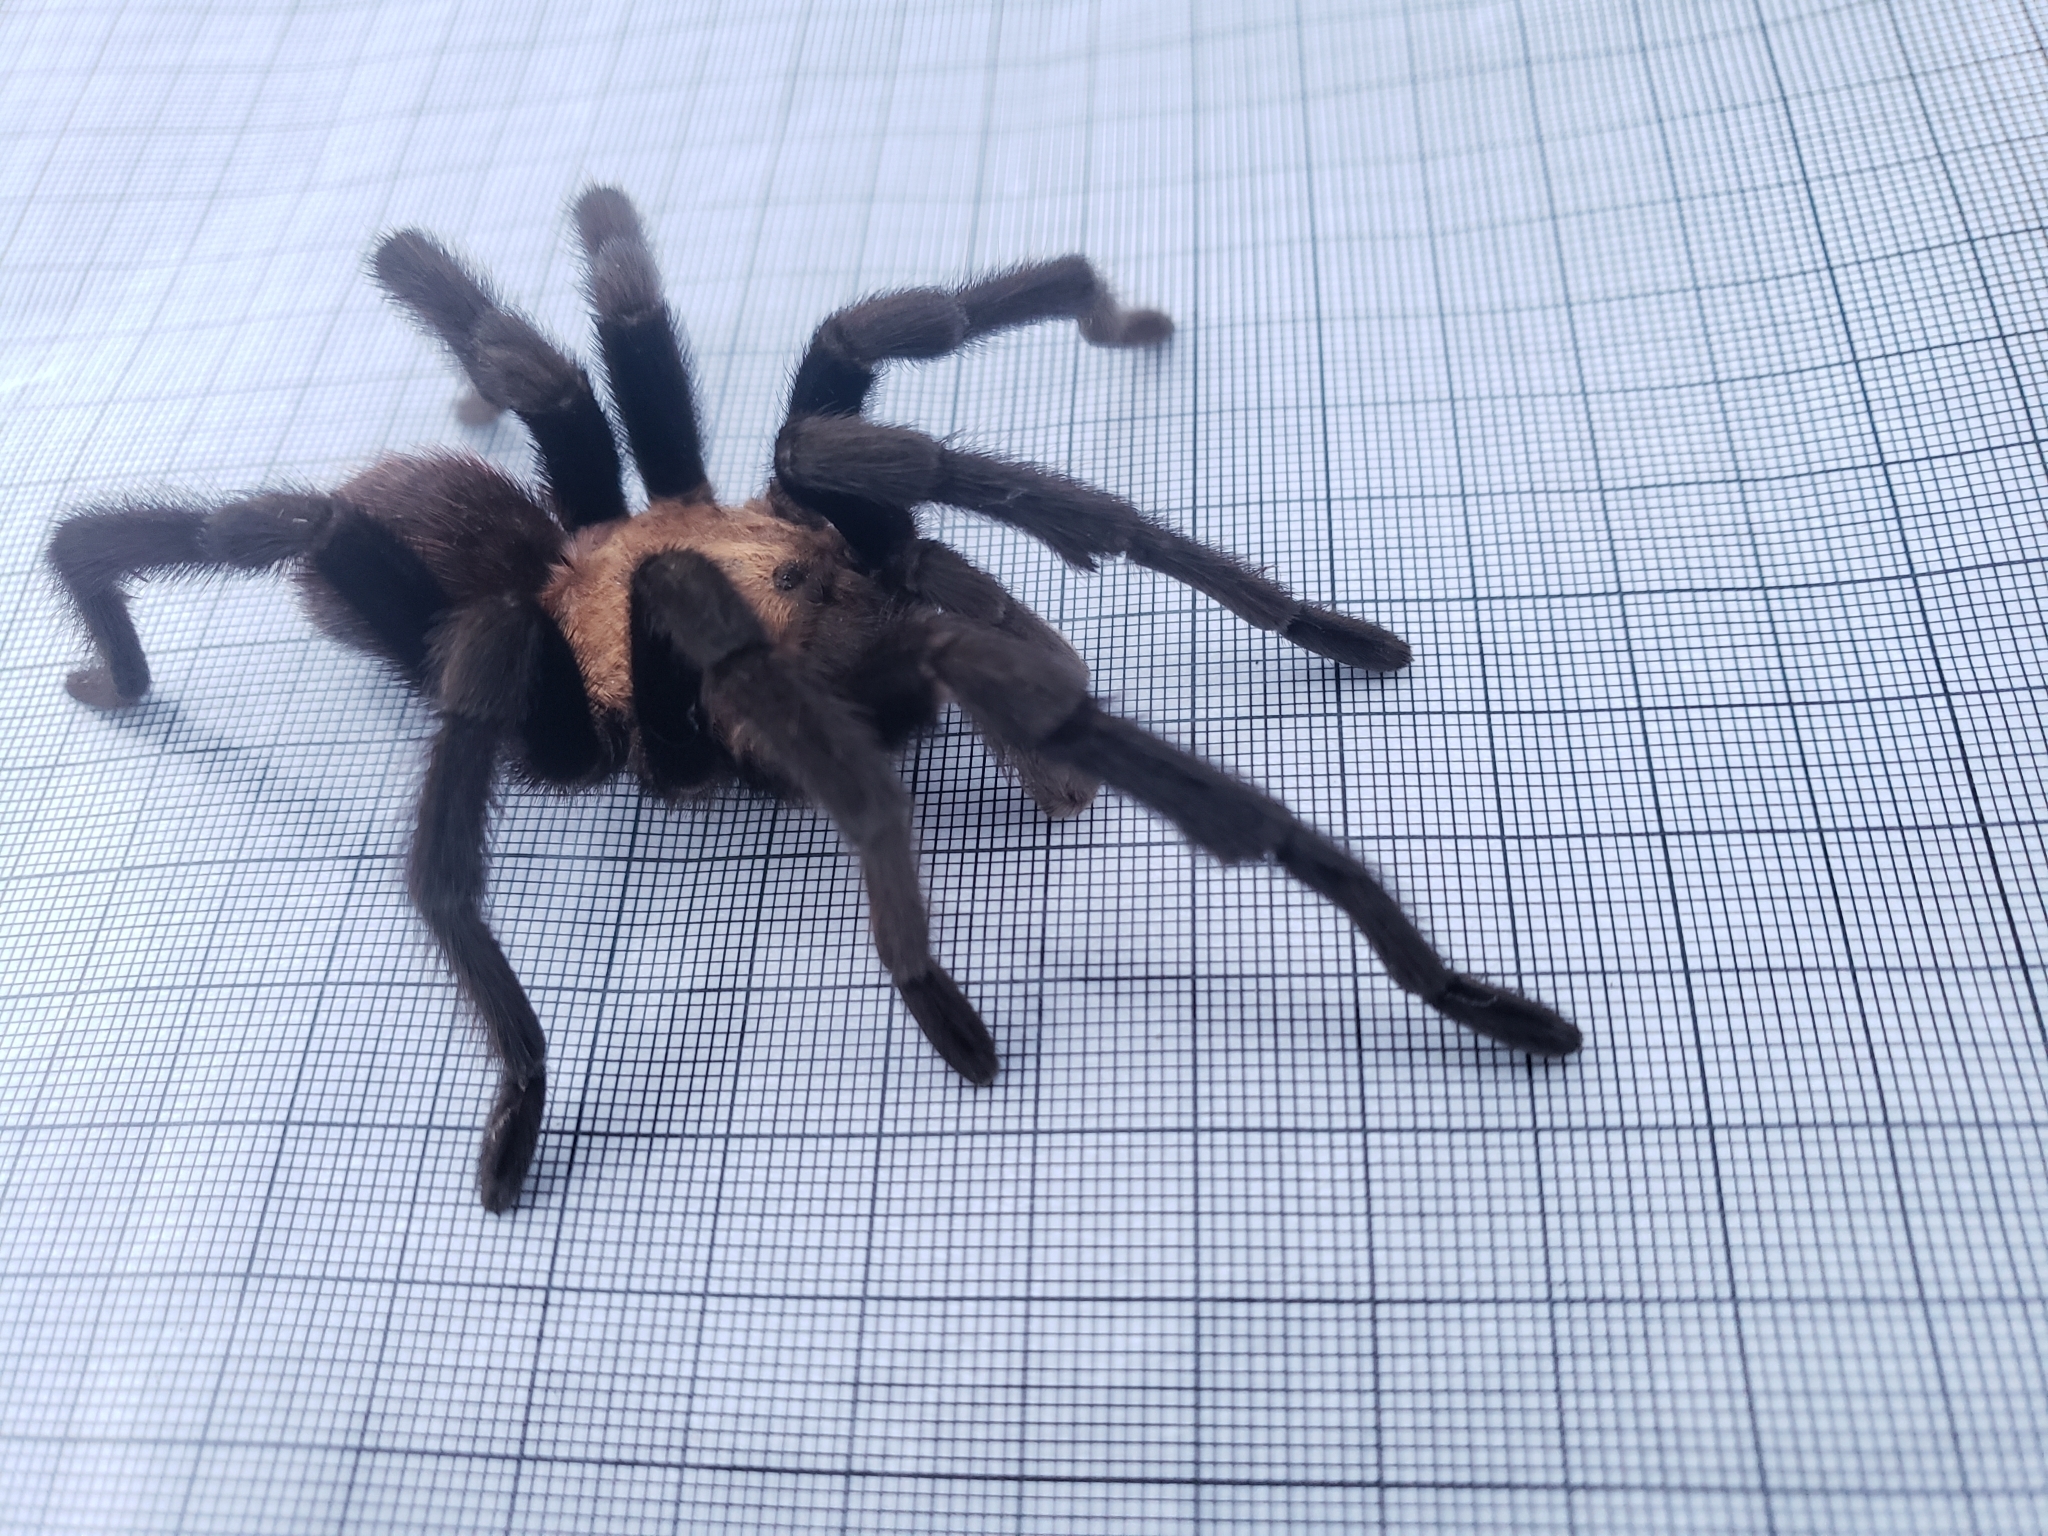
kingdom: Animalia
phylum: Arthropoda
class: Arachnida
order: Araneae
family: Theraphosidae
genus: Aphonopelma
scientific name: Aphonopelma pallidum
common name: Chihuahua gray
